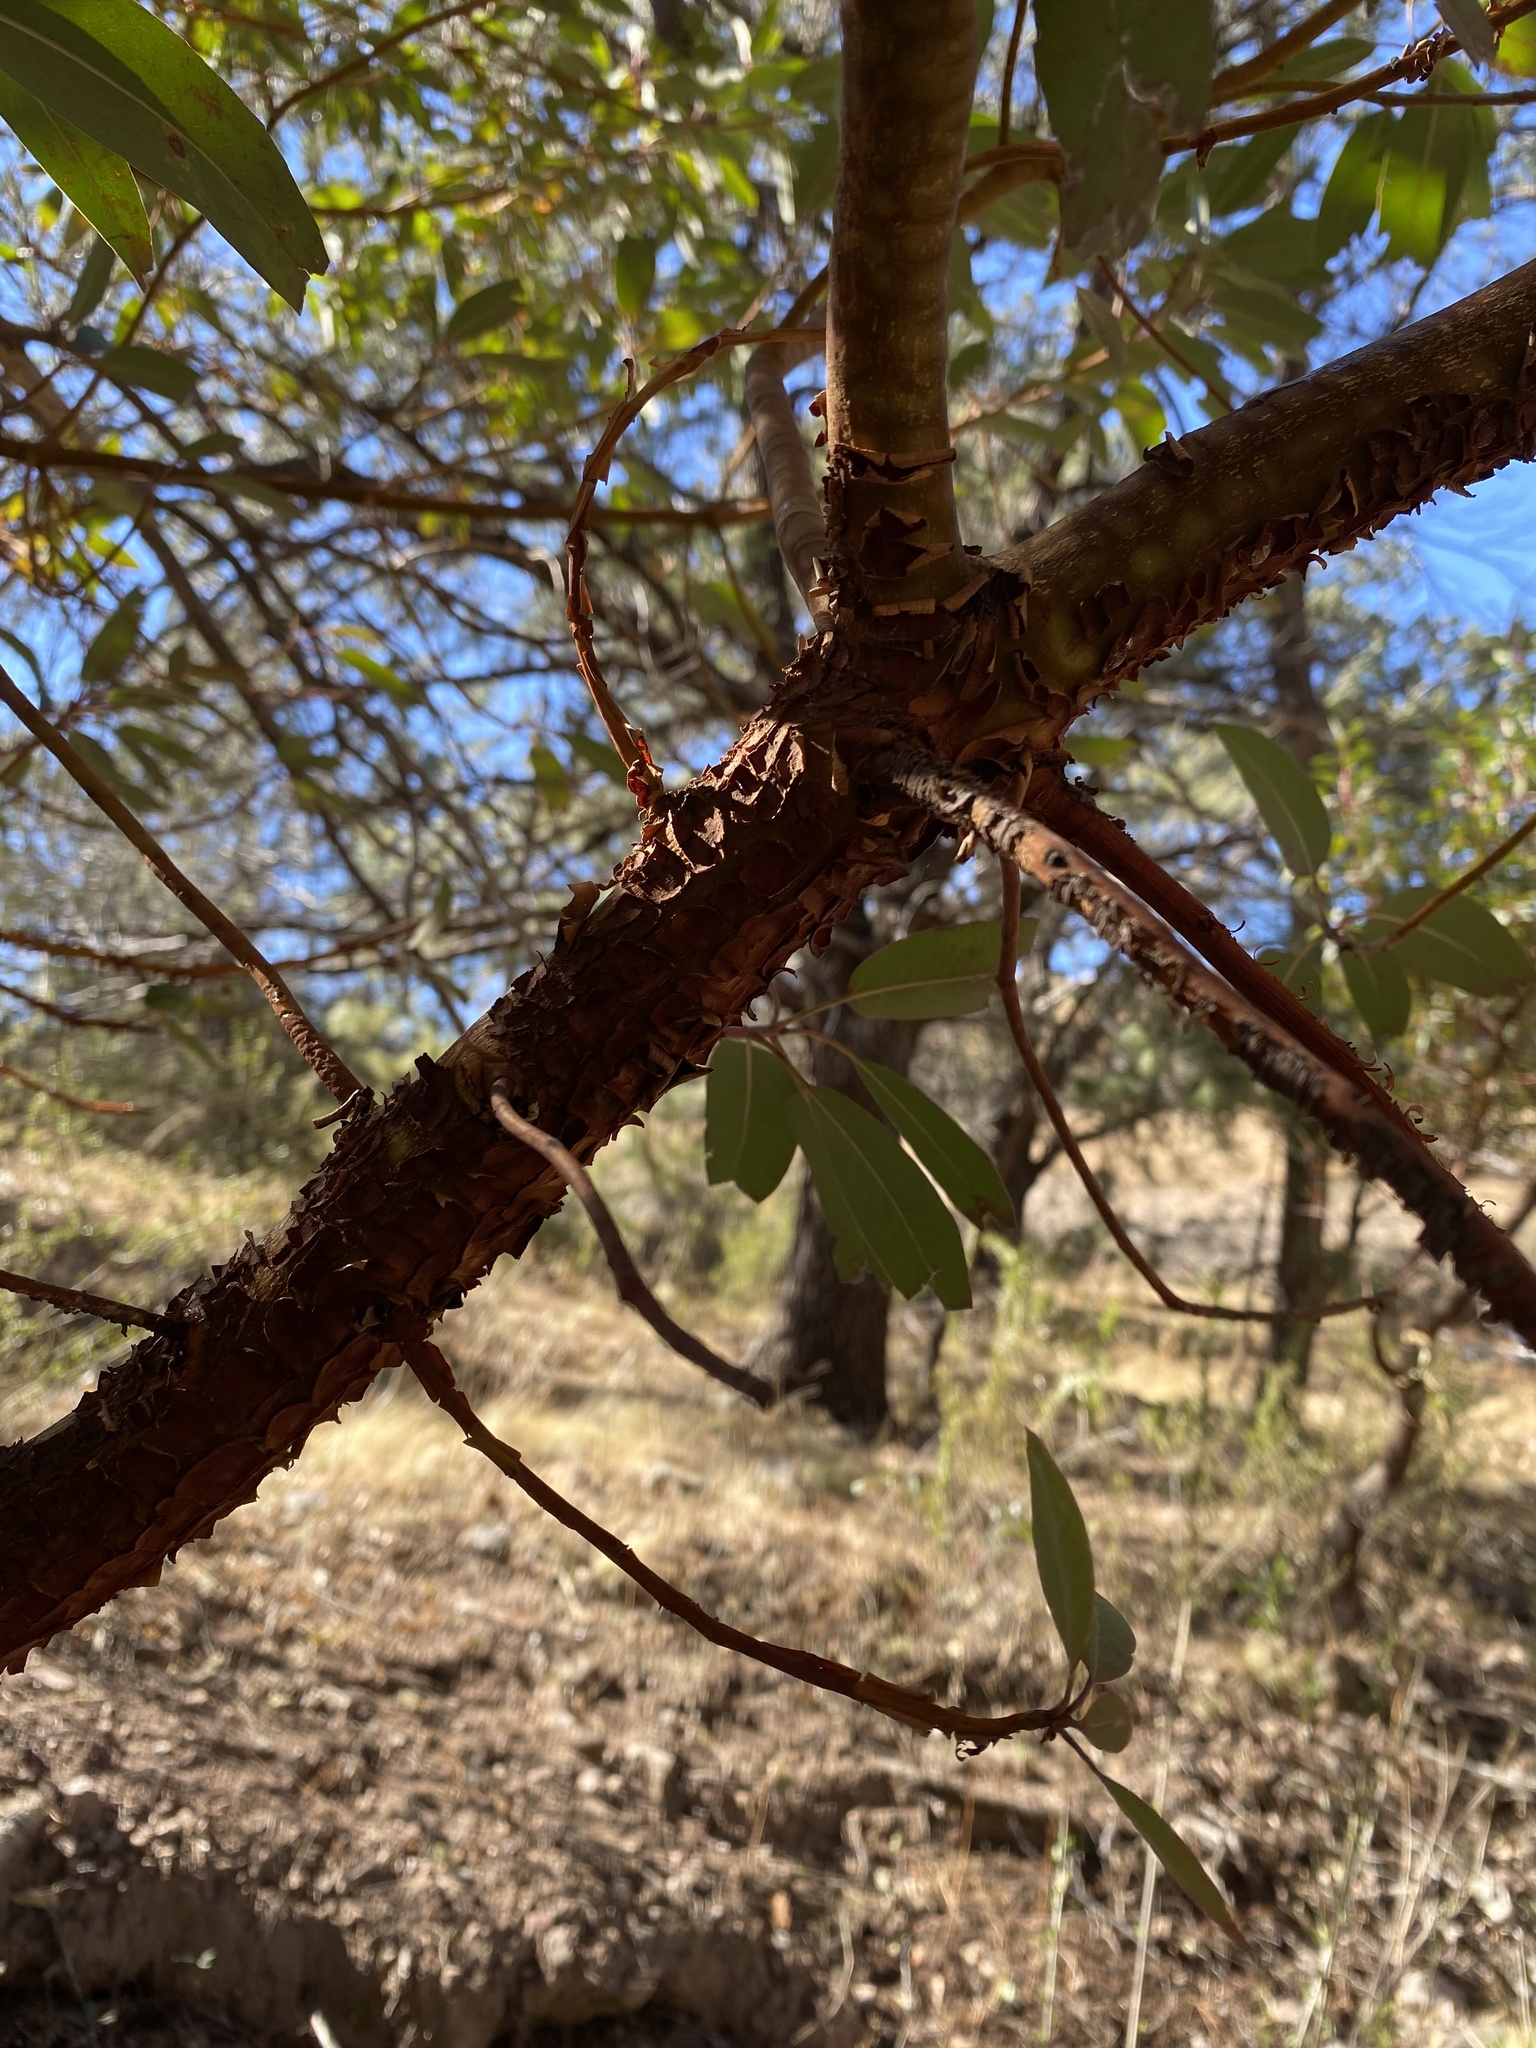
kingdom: Plantae
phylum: Tracheophyta
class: Magnoliopsida
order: Ericales
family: Ericaceae
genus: Arbutus
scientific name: Arbutus arizonica
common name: Arizona madrone
